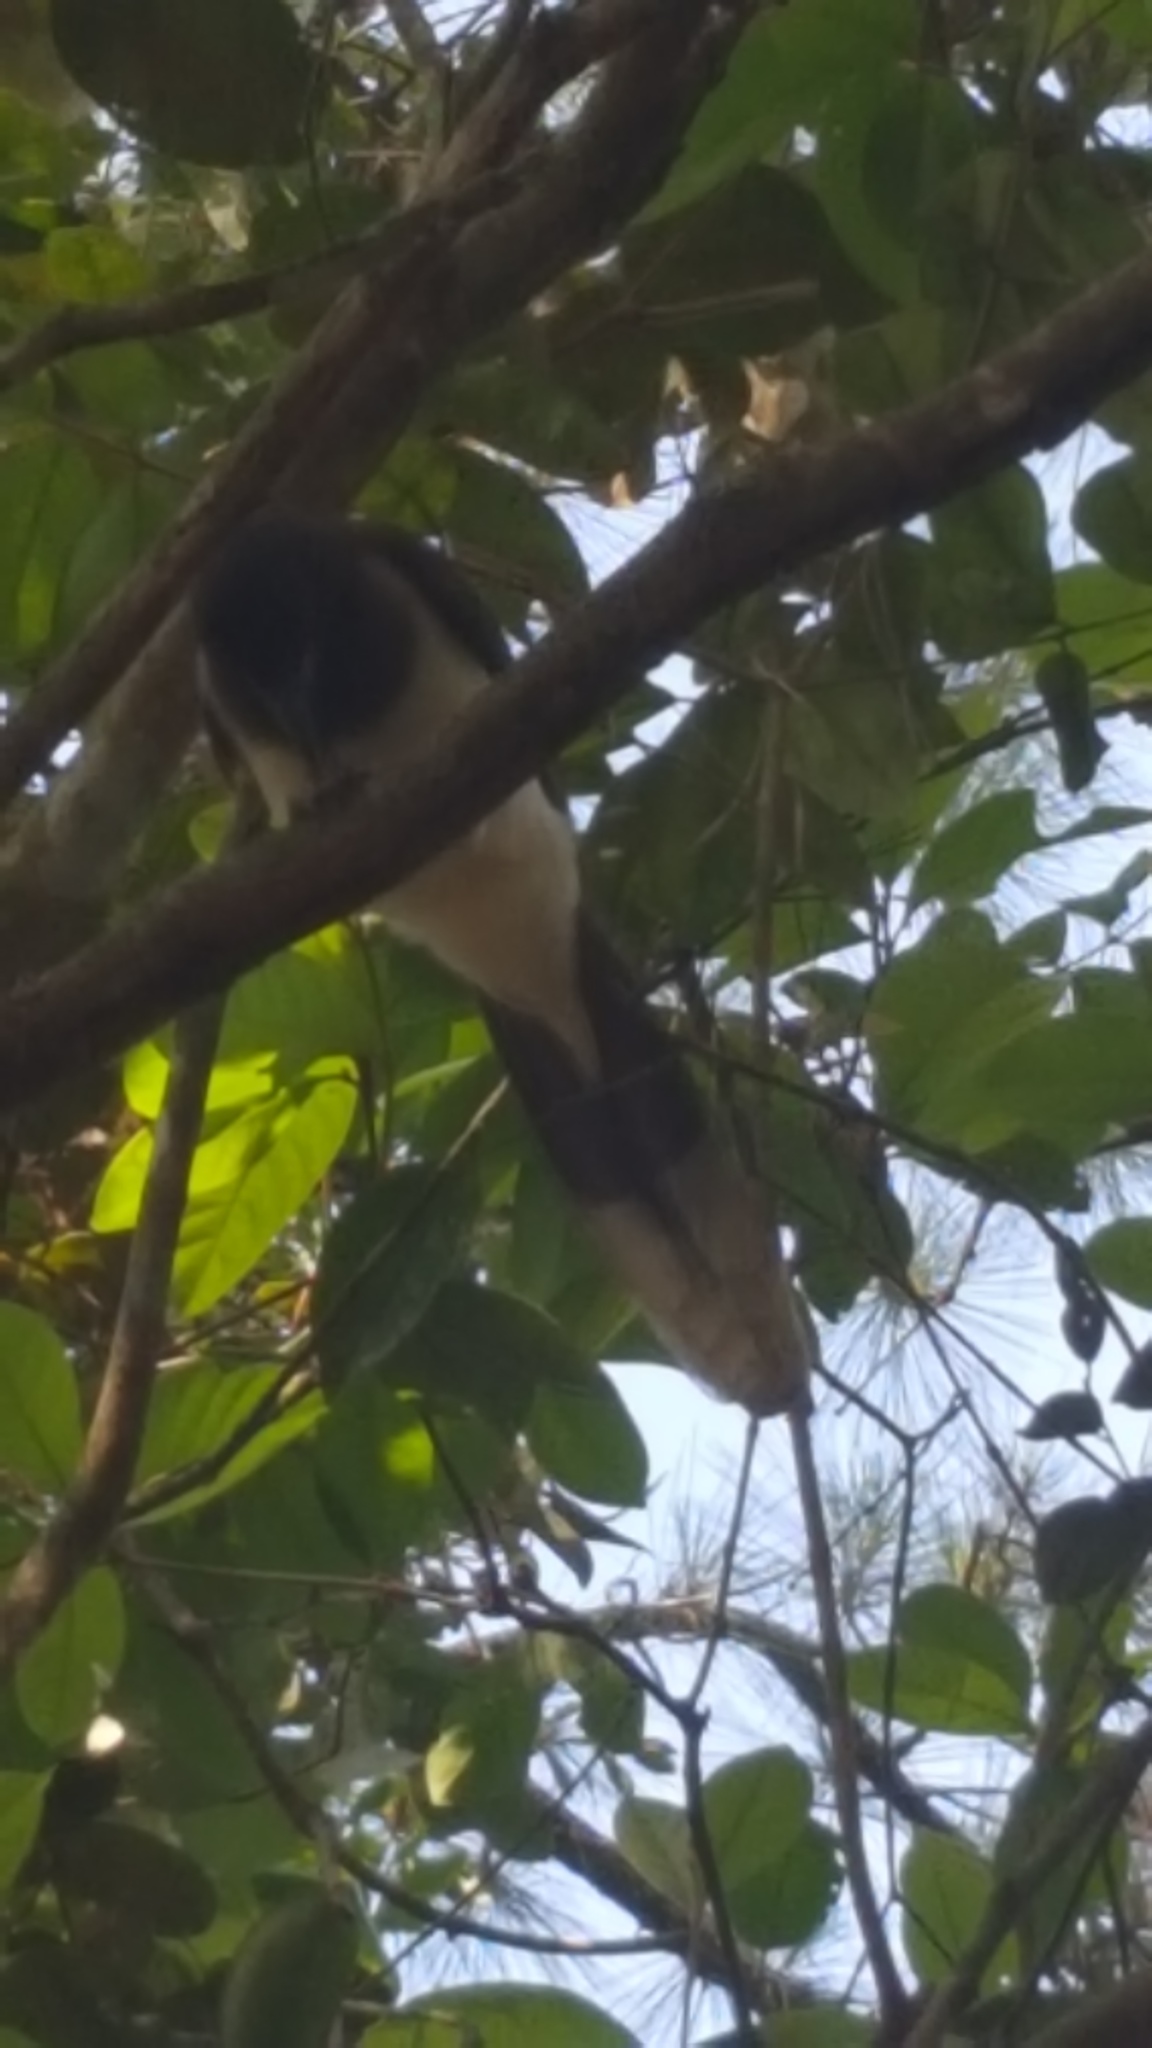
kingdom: Animalia
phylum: Chordata
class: Aves
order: Passeriformes
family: Corvidae
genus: Psilorhinus
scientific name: Psilorhinus morio
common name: Brown jay
